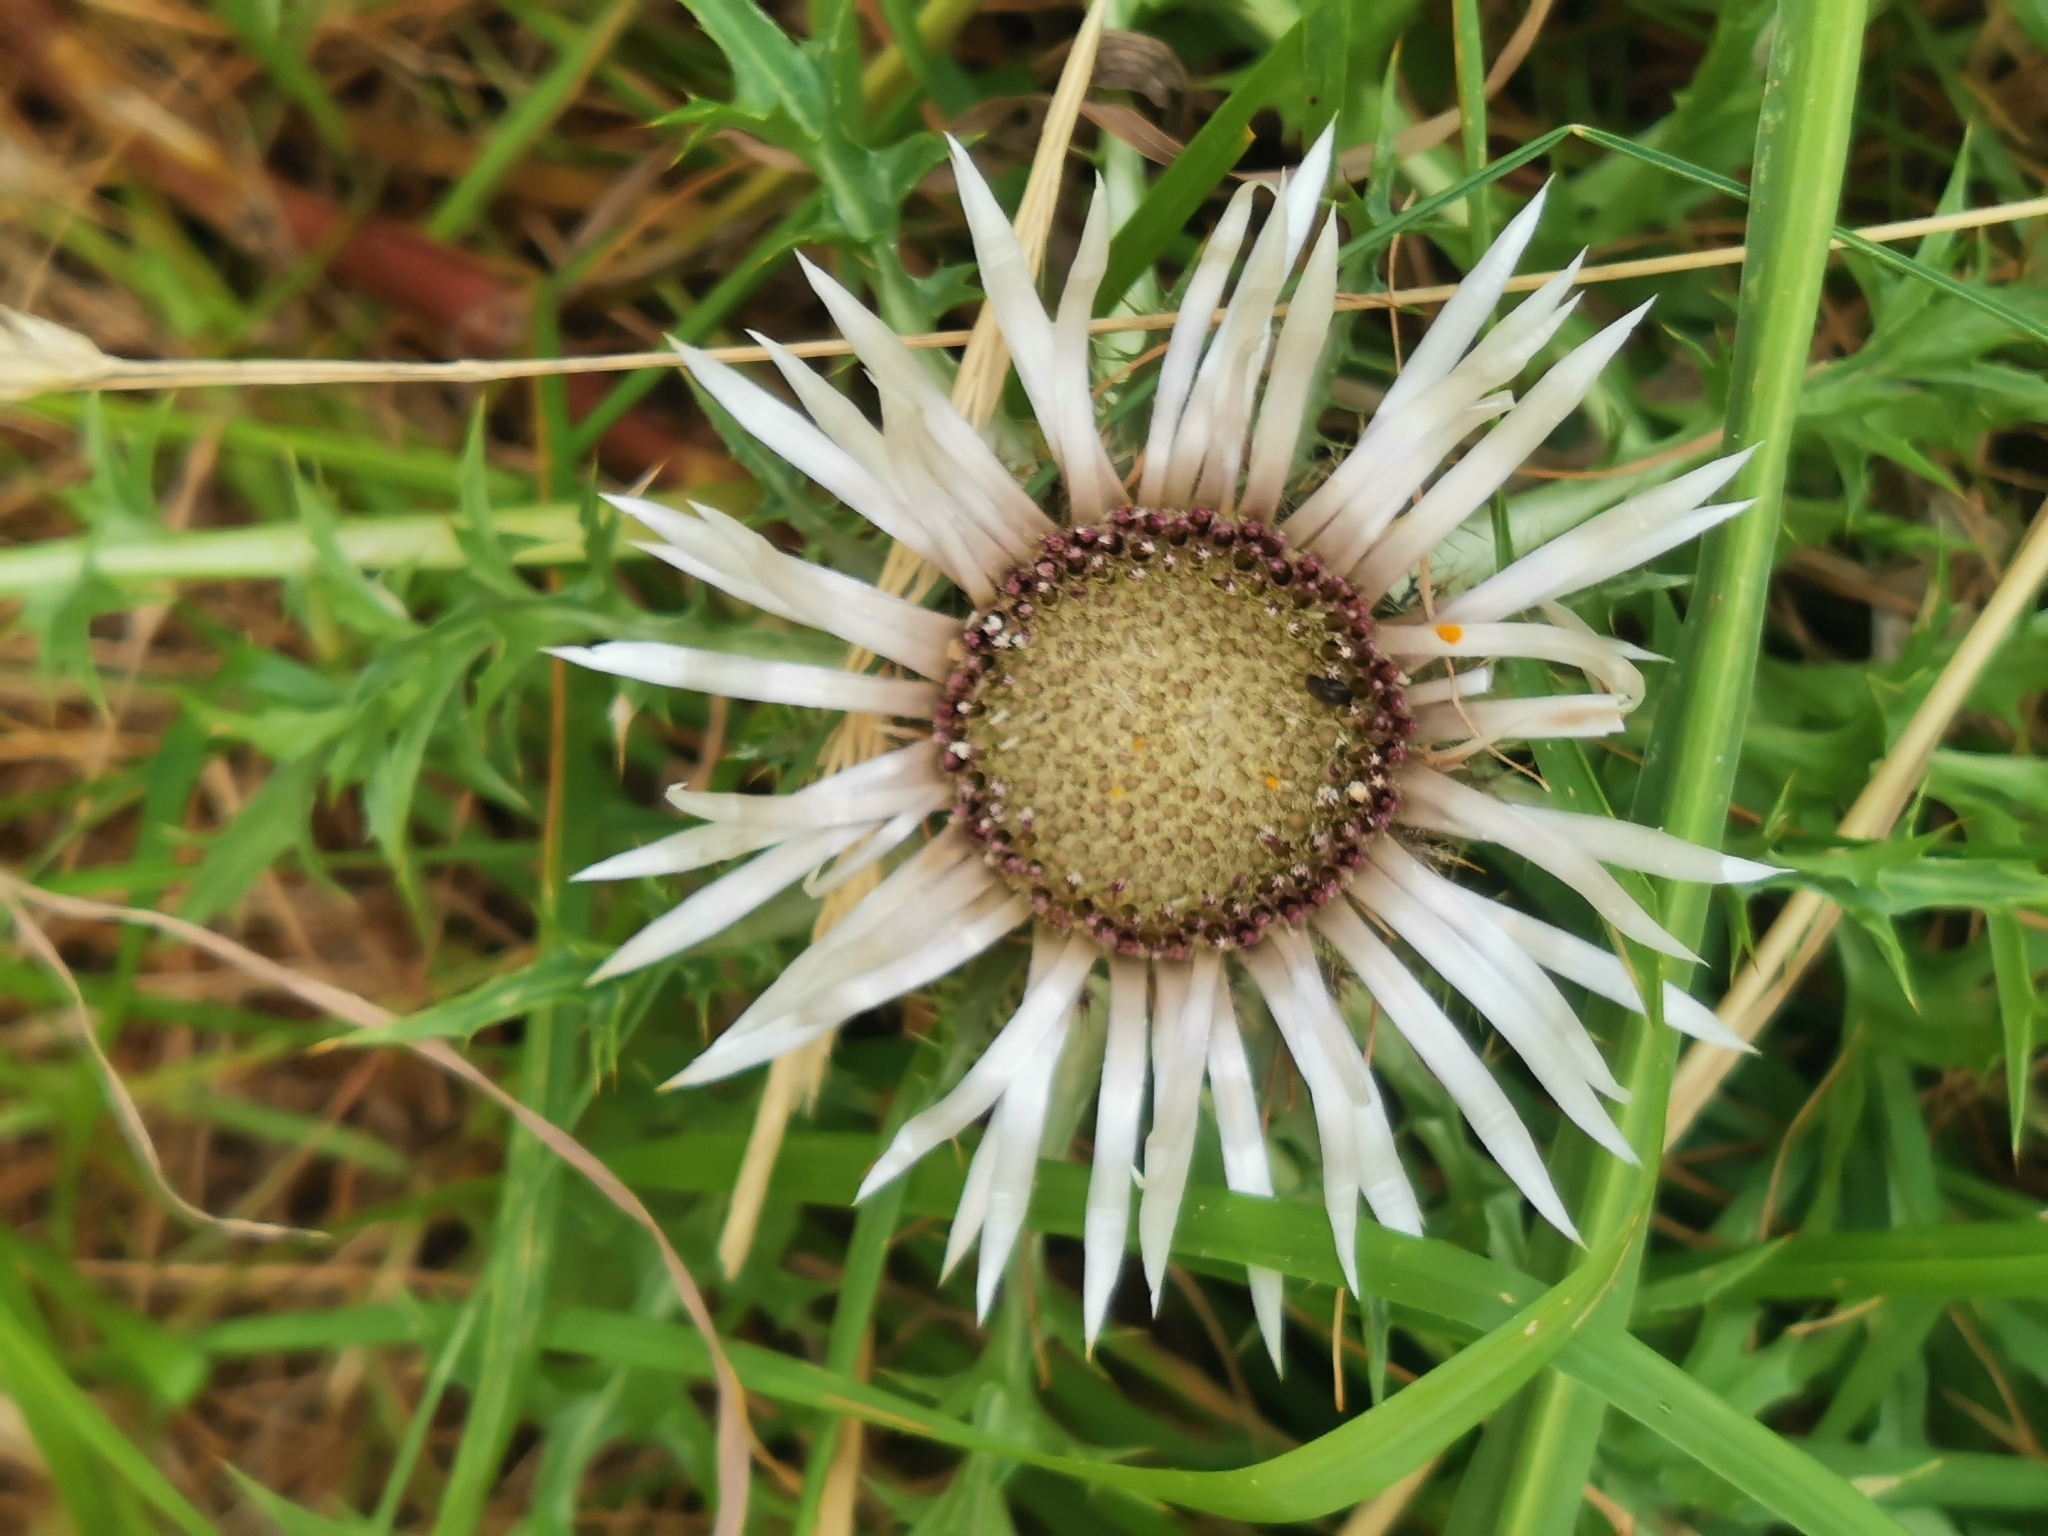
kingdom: Plantae
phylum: Tracheophyta
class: Magnoliopsida
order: Asterales
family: Asteraceae
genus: Carlina
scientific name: Carlina acaulis
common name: Stemless carline thistle
